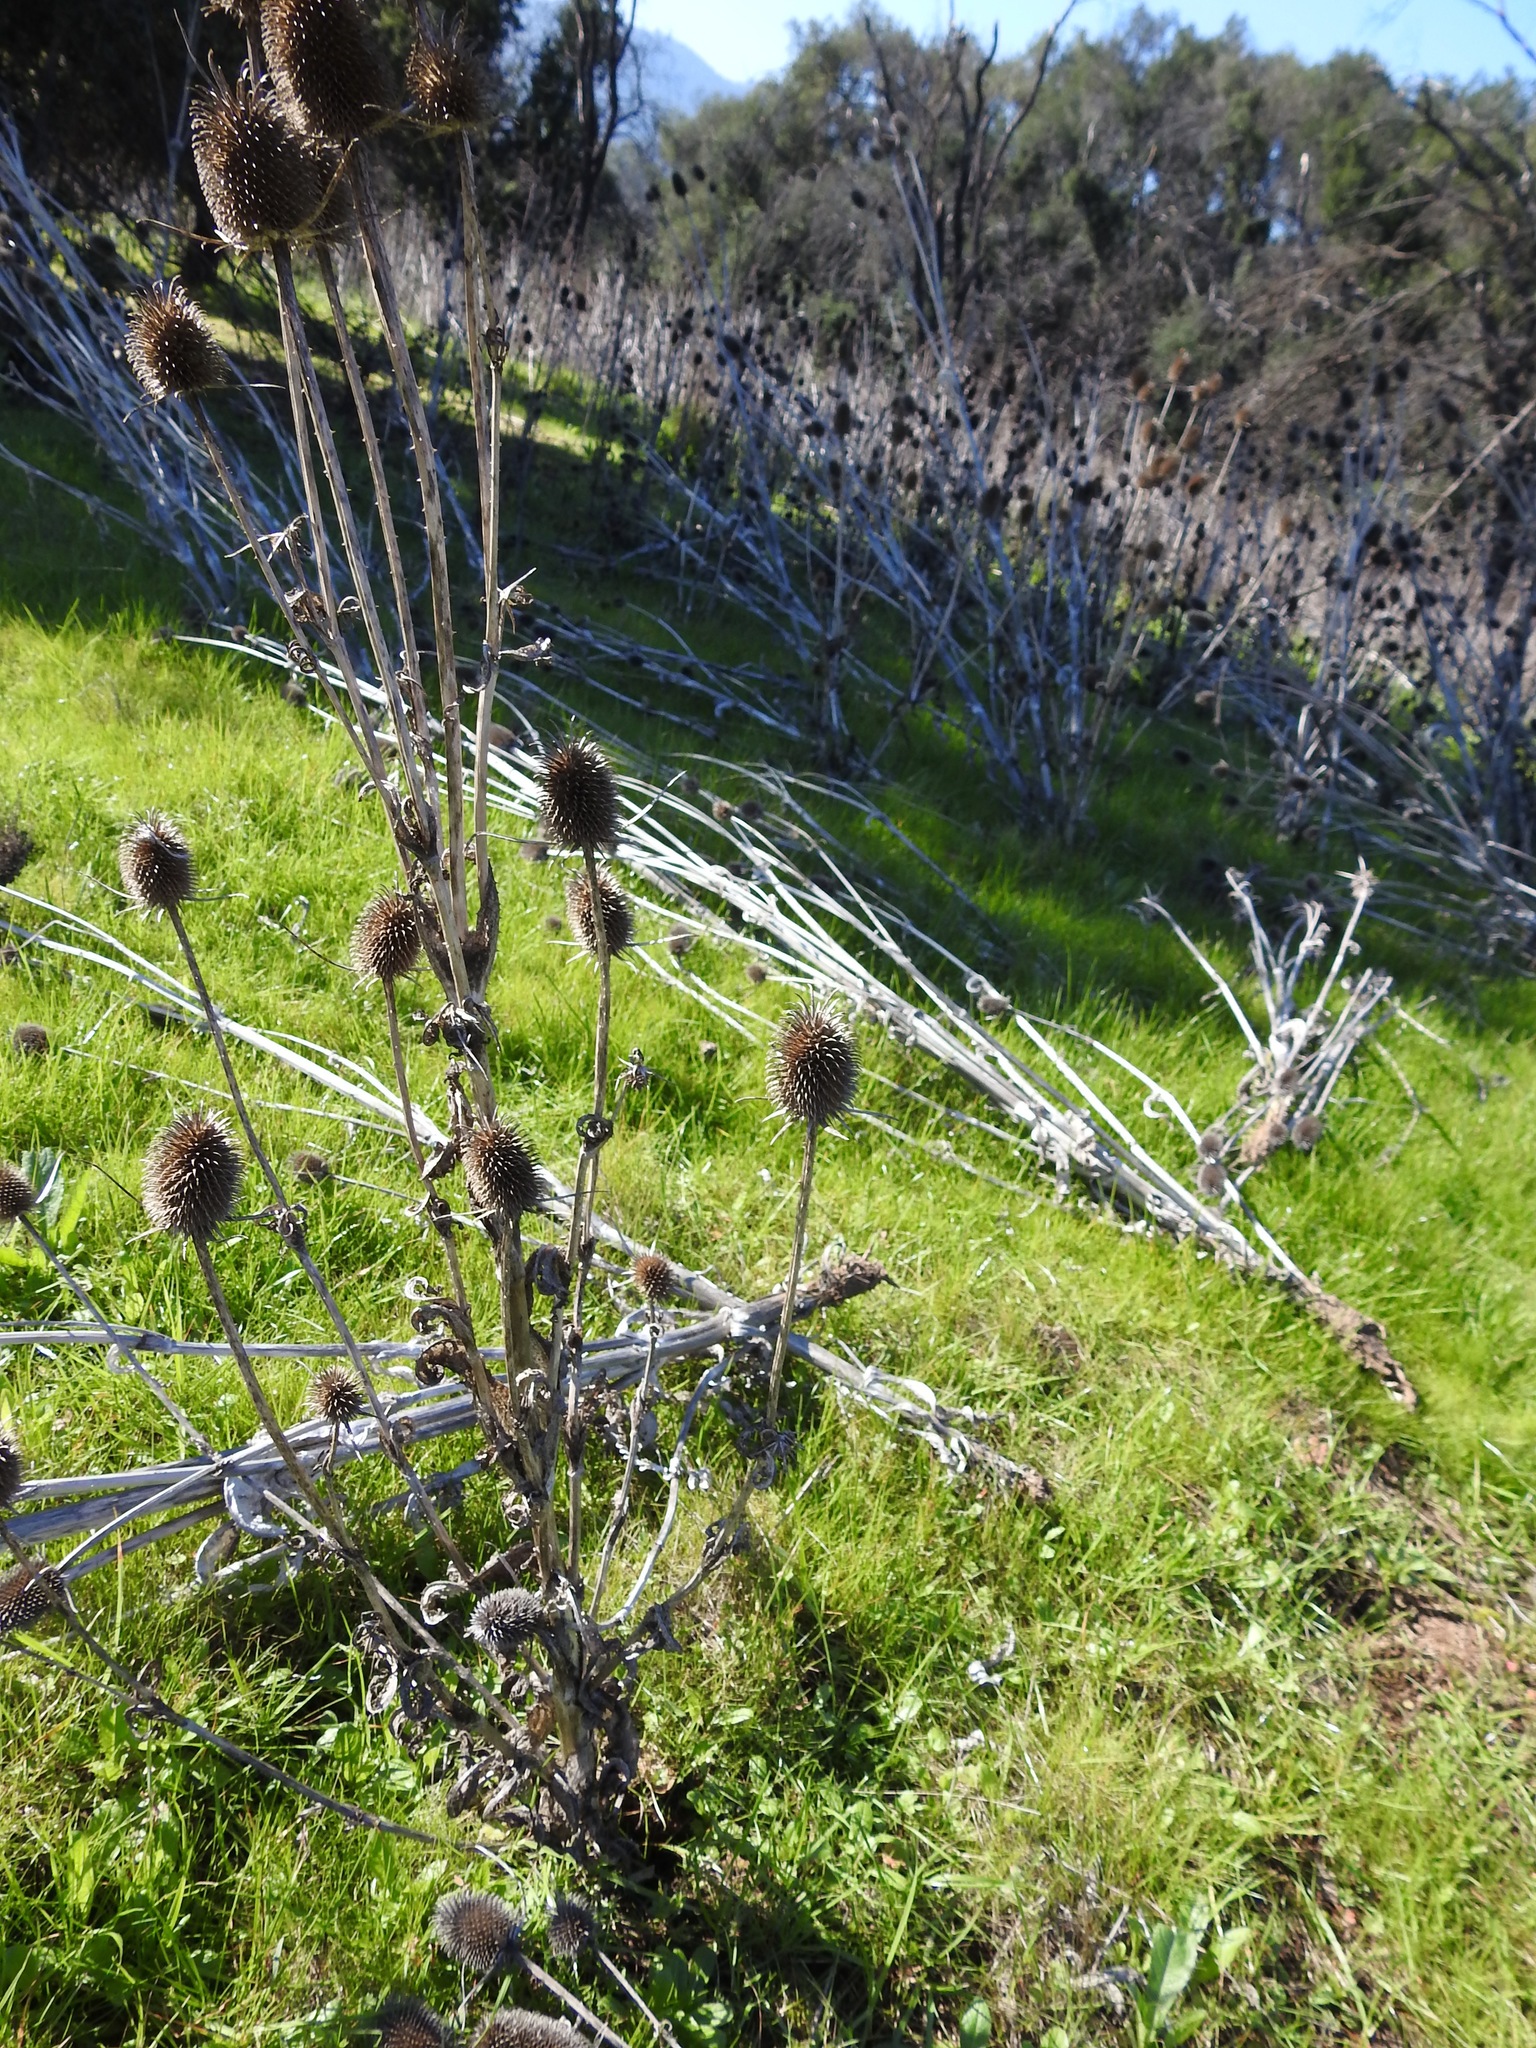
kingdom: Plantae
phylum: Tracheophyta
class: Magnoliopsida
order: Dipsacales
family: Caprifoliaceae
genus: Dipsacus
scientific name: Dipsacus sativus
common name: Fuller's teasel
